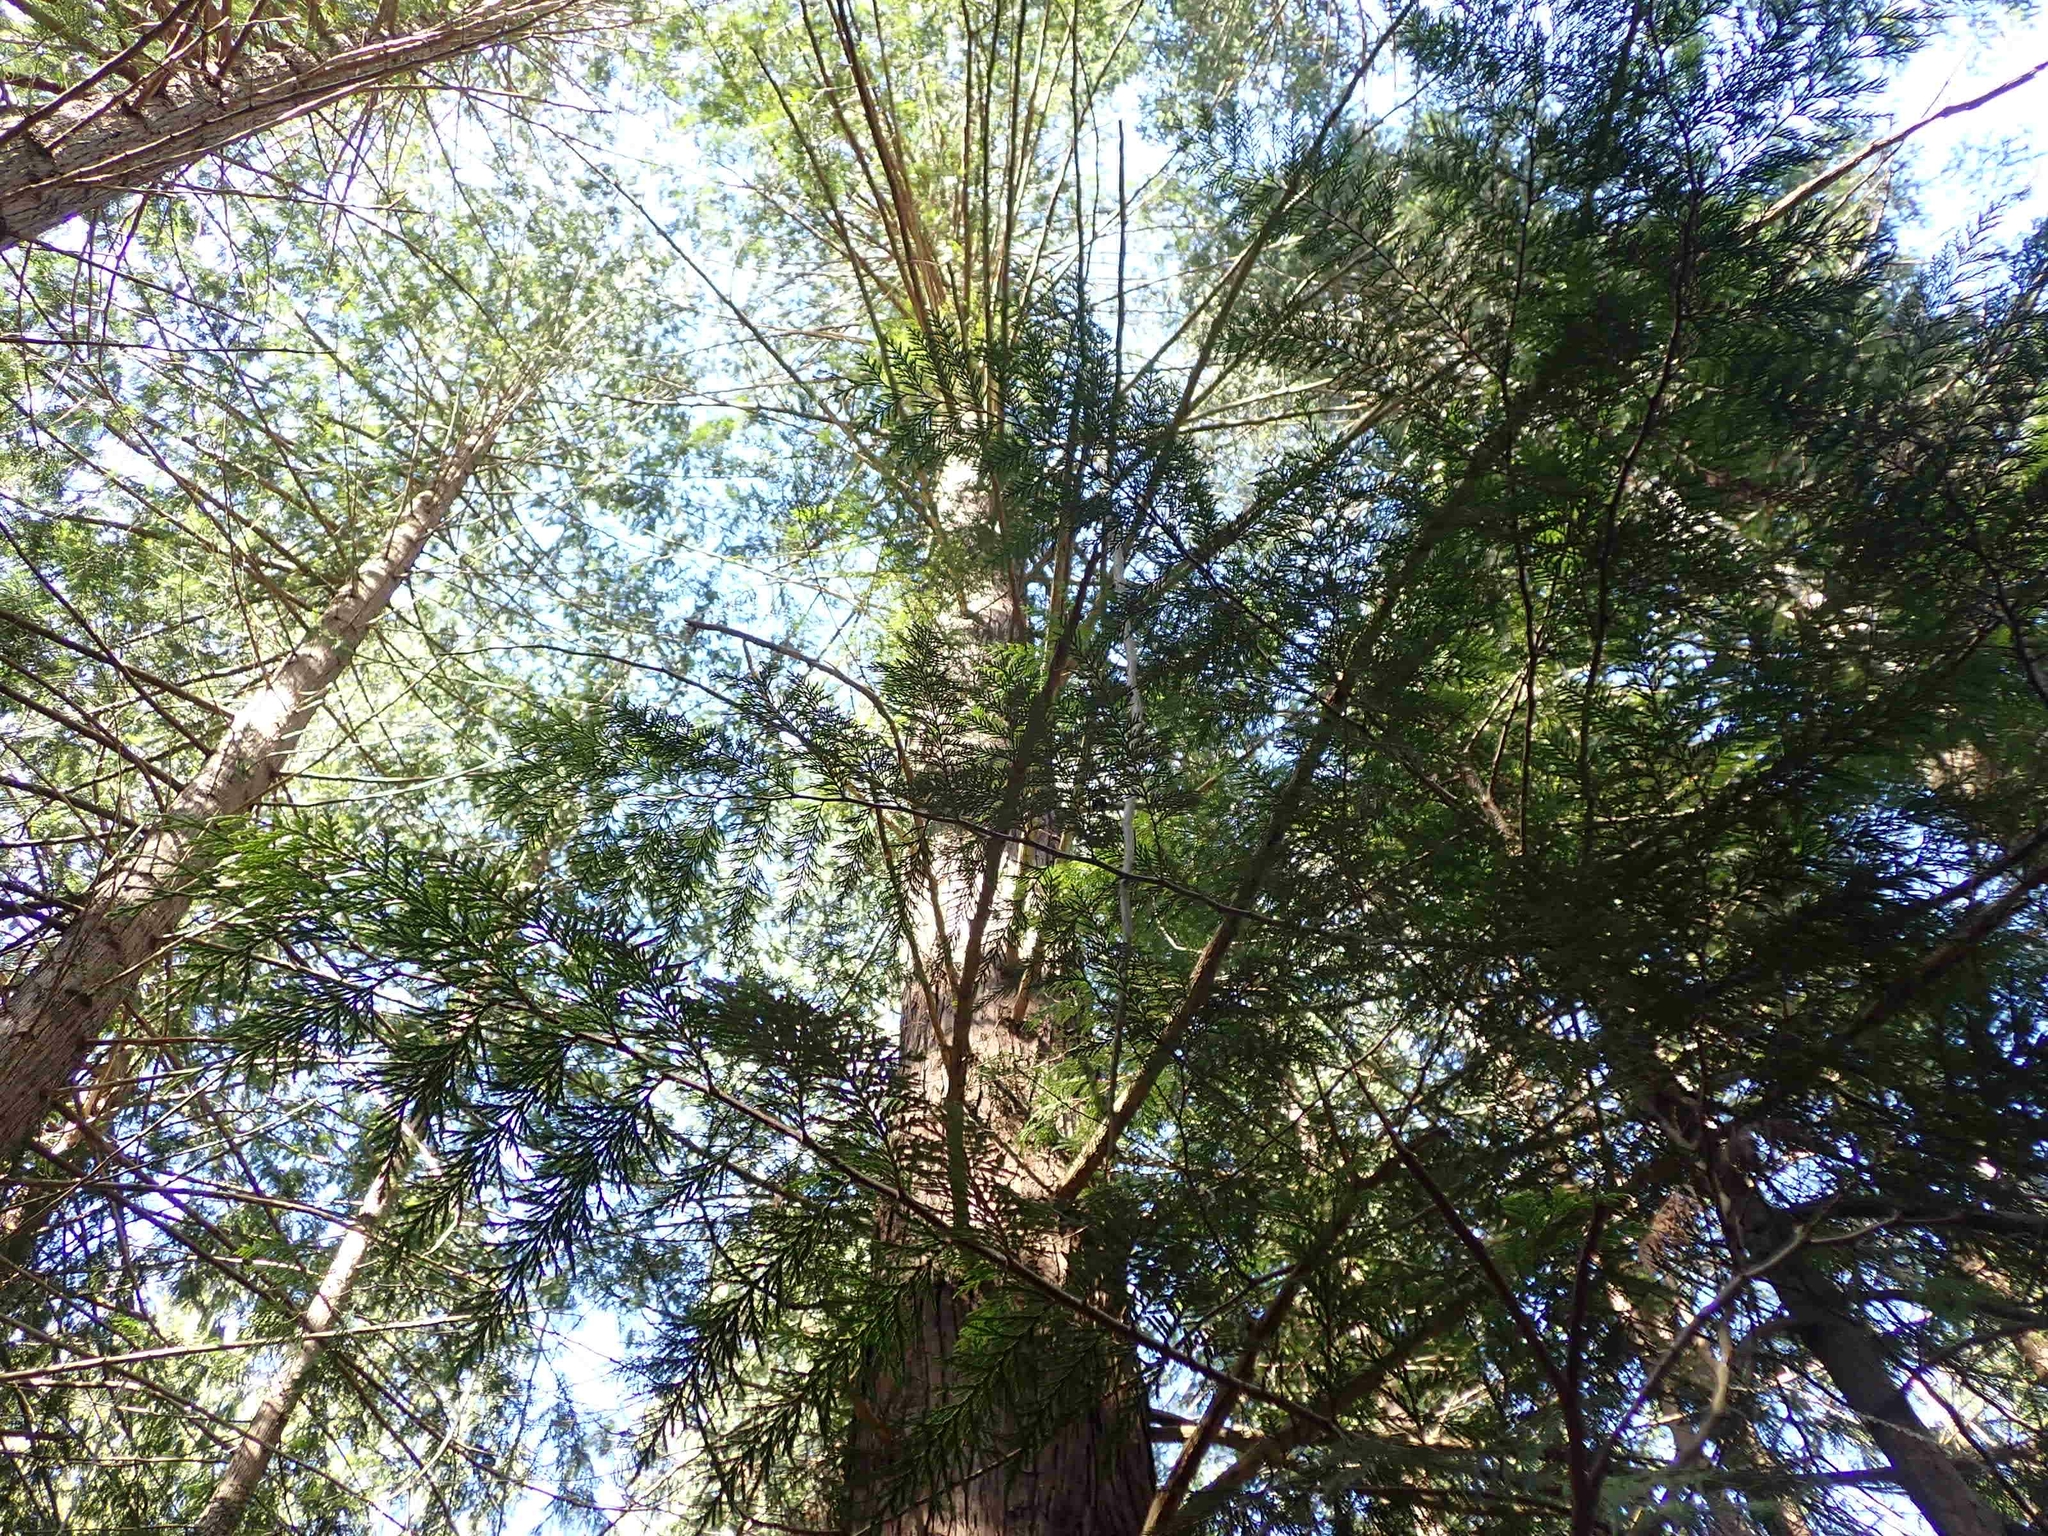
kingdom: Plantae
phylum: Tracheophyta
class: Pinopsida
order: Pinales
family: Cupressaceae
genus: Thuja
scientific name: Thuja plicata
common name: Western red-cedar
